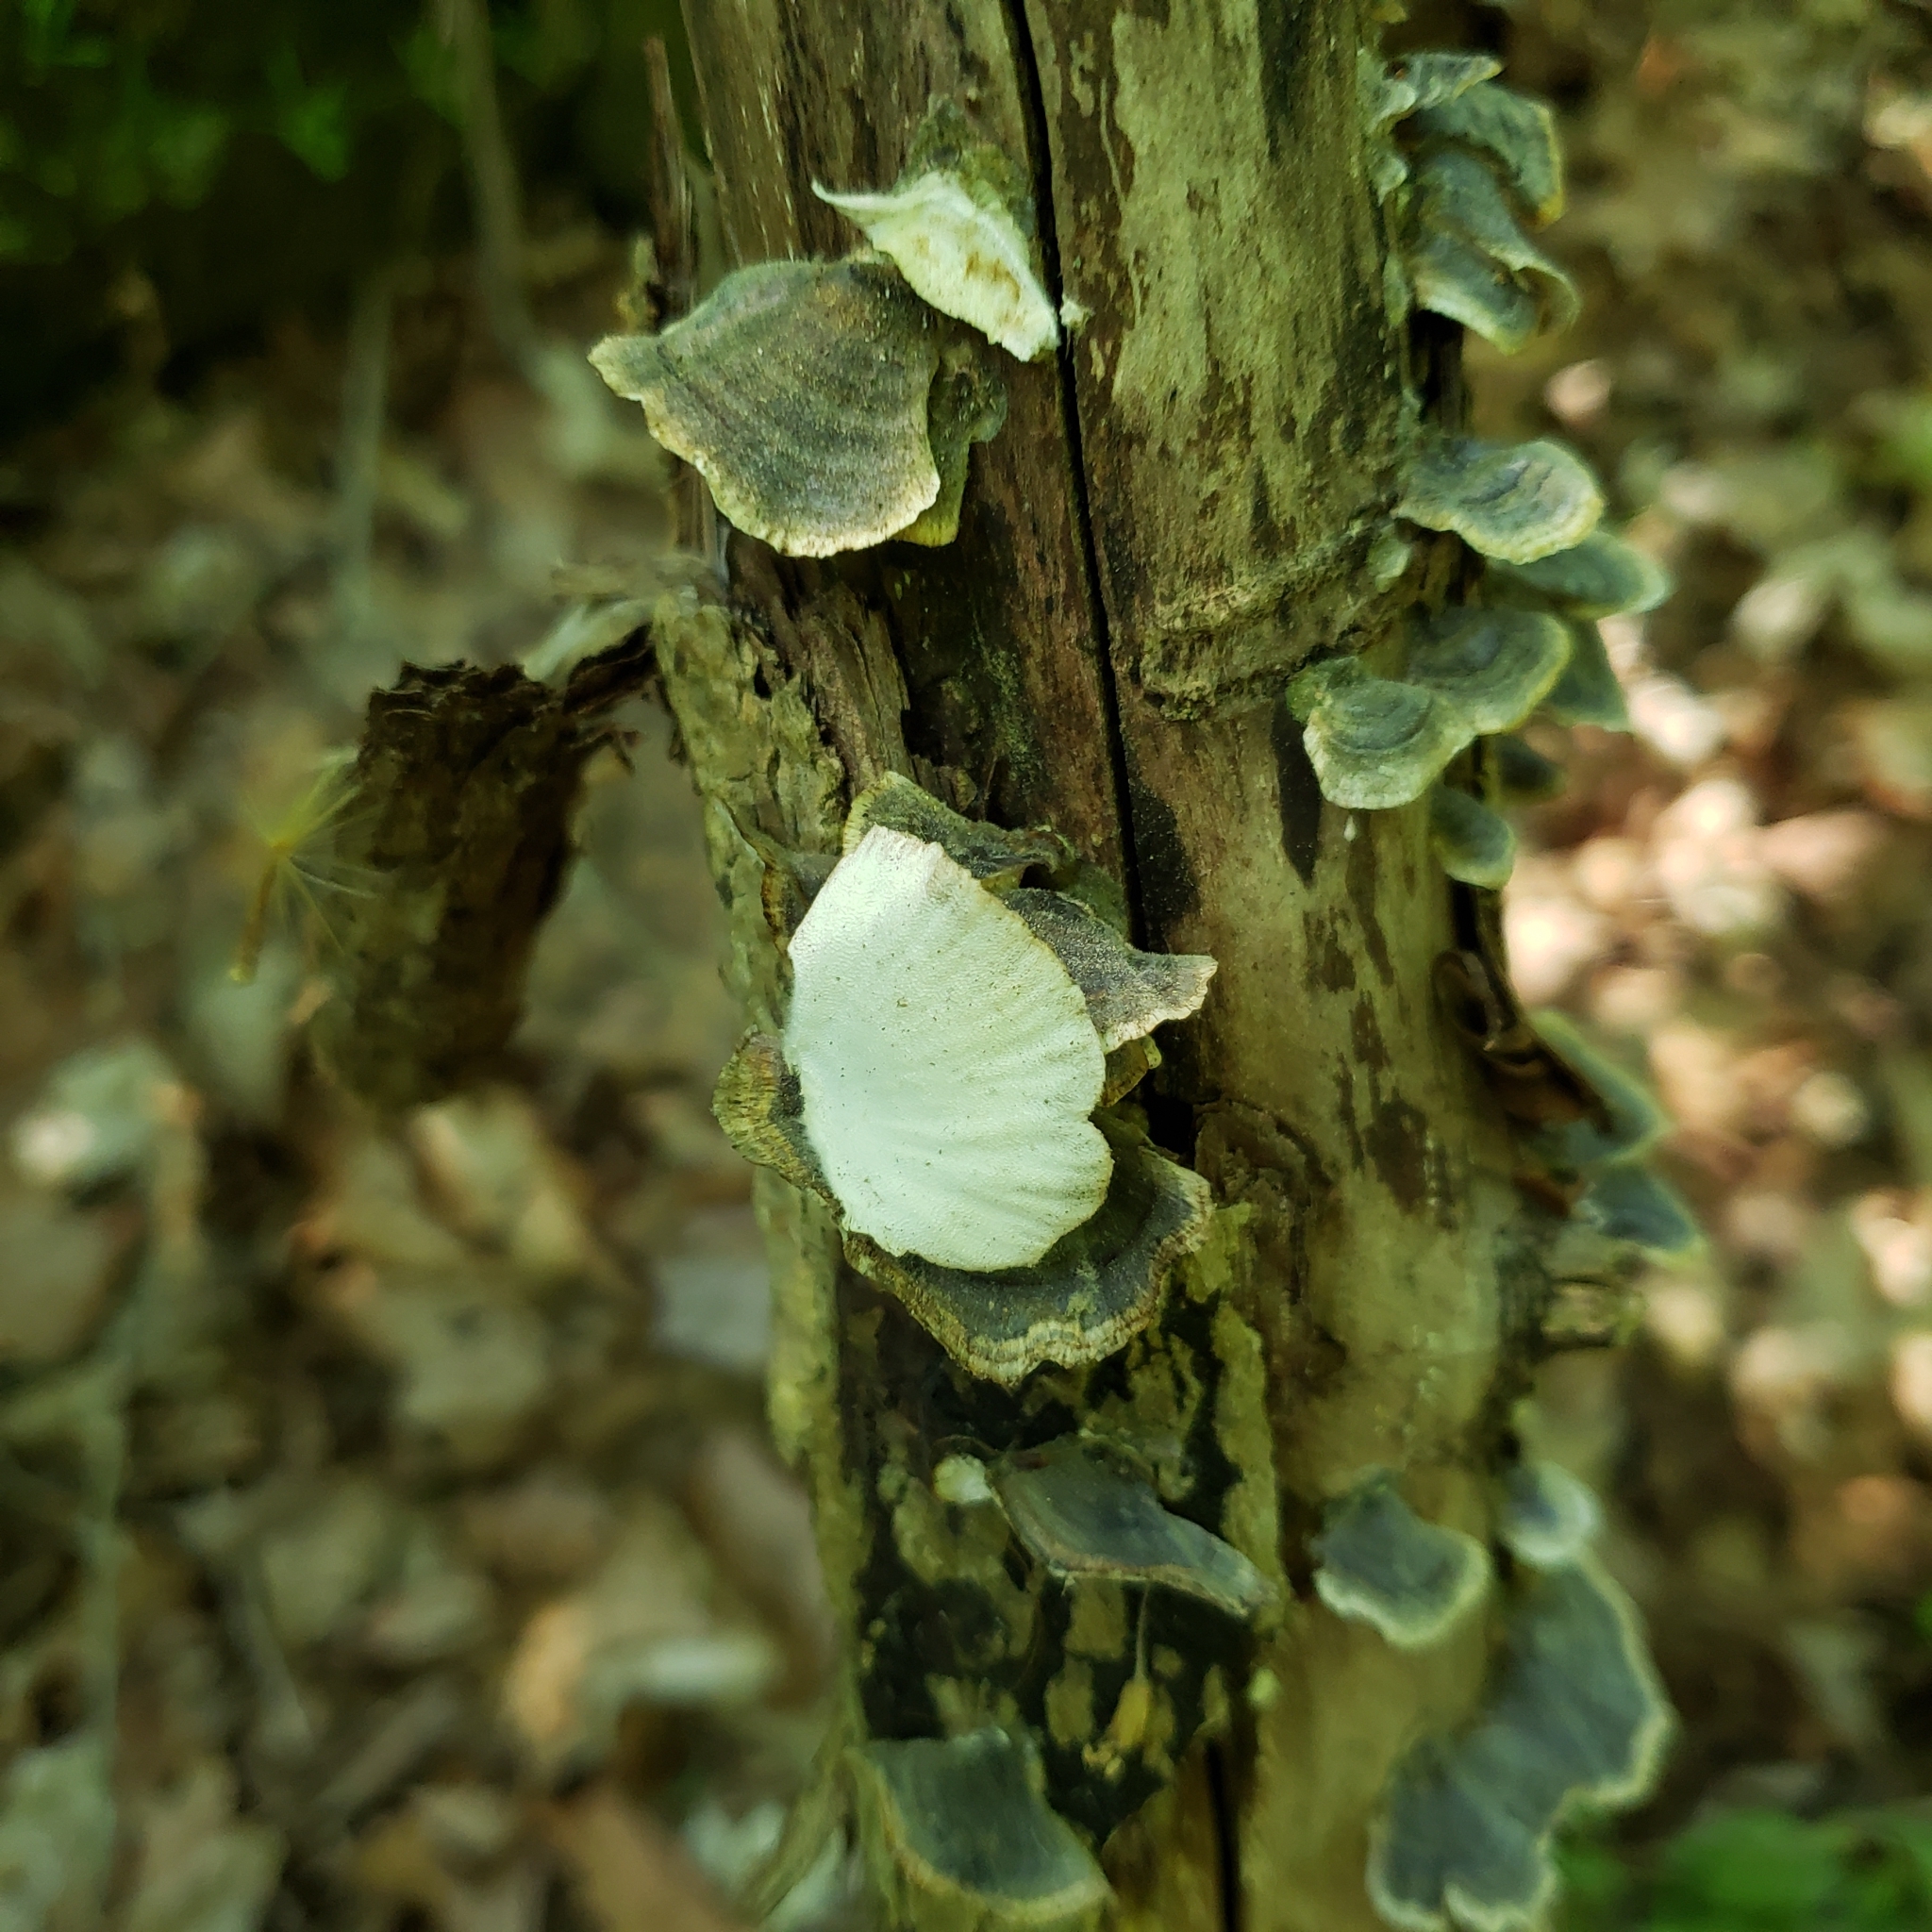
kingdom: Fungi
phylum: Basidiomycota
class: Agaricomycetes
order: Polyporales
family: Polyporaceae
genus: Trametes
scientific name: Trametes versicolor
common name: Turkeytail
